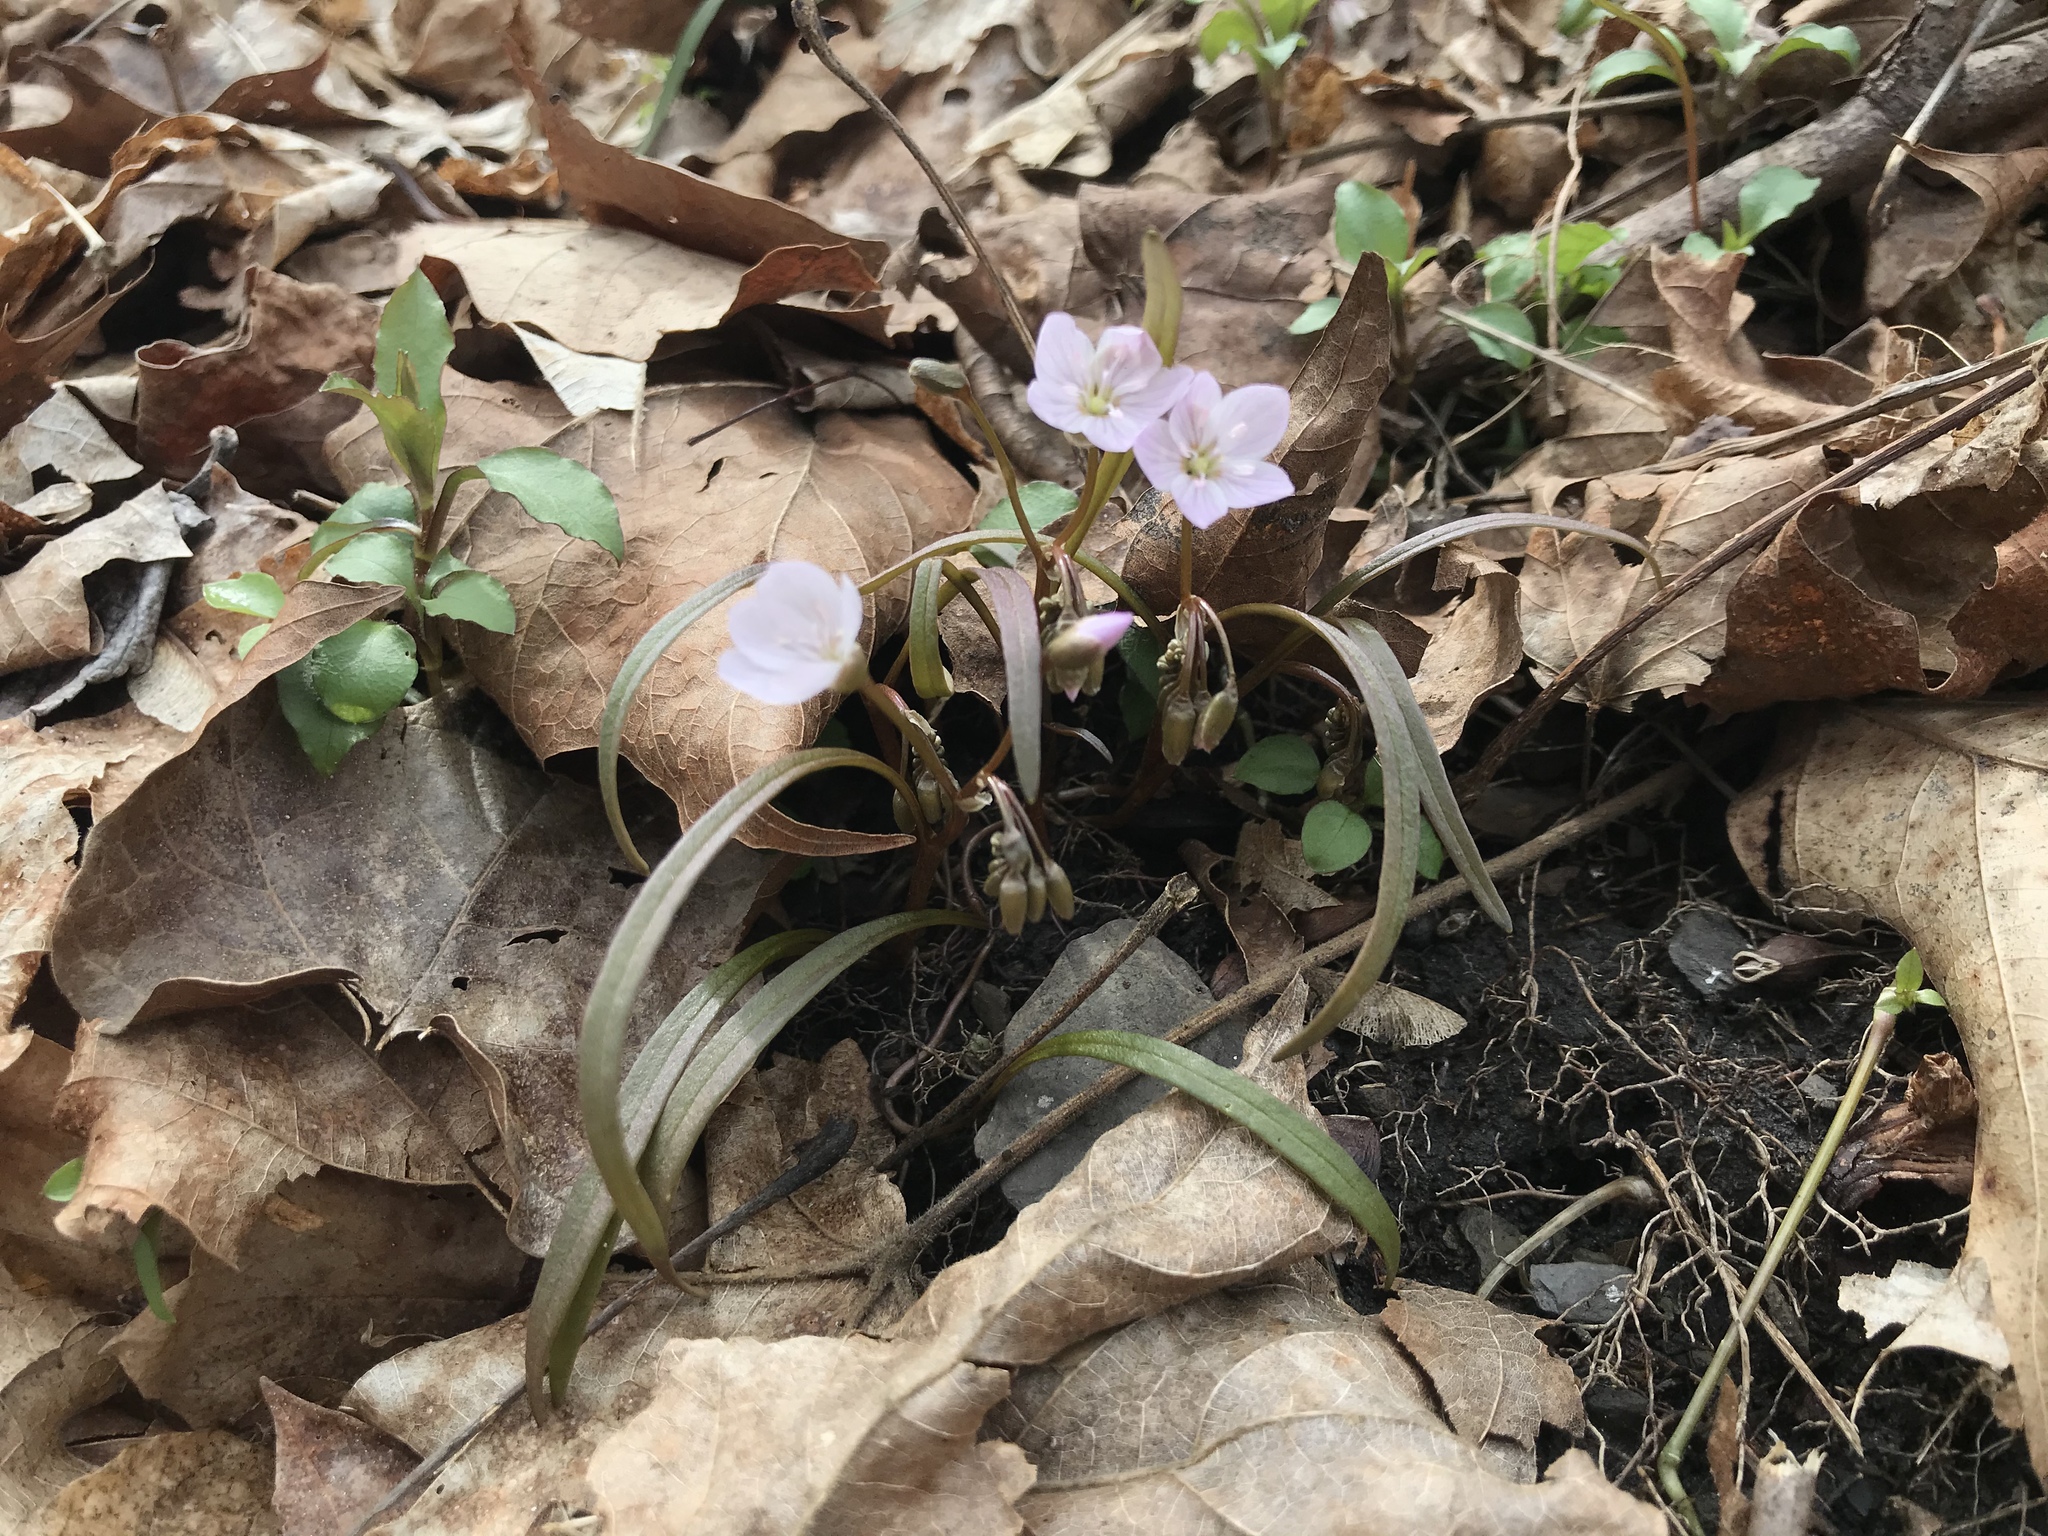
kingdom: Plantae
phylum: Tracheophyta
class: Magnoliopsida
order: Caryophyllales
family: Montiaceae
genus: Claytonia
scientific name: Claytonia virginica
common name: Virginia springbeauty
